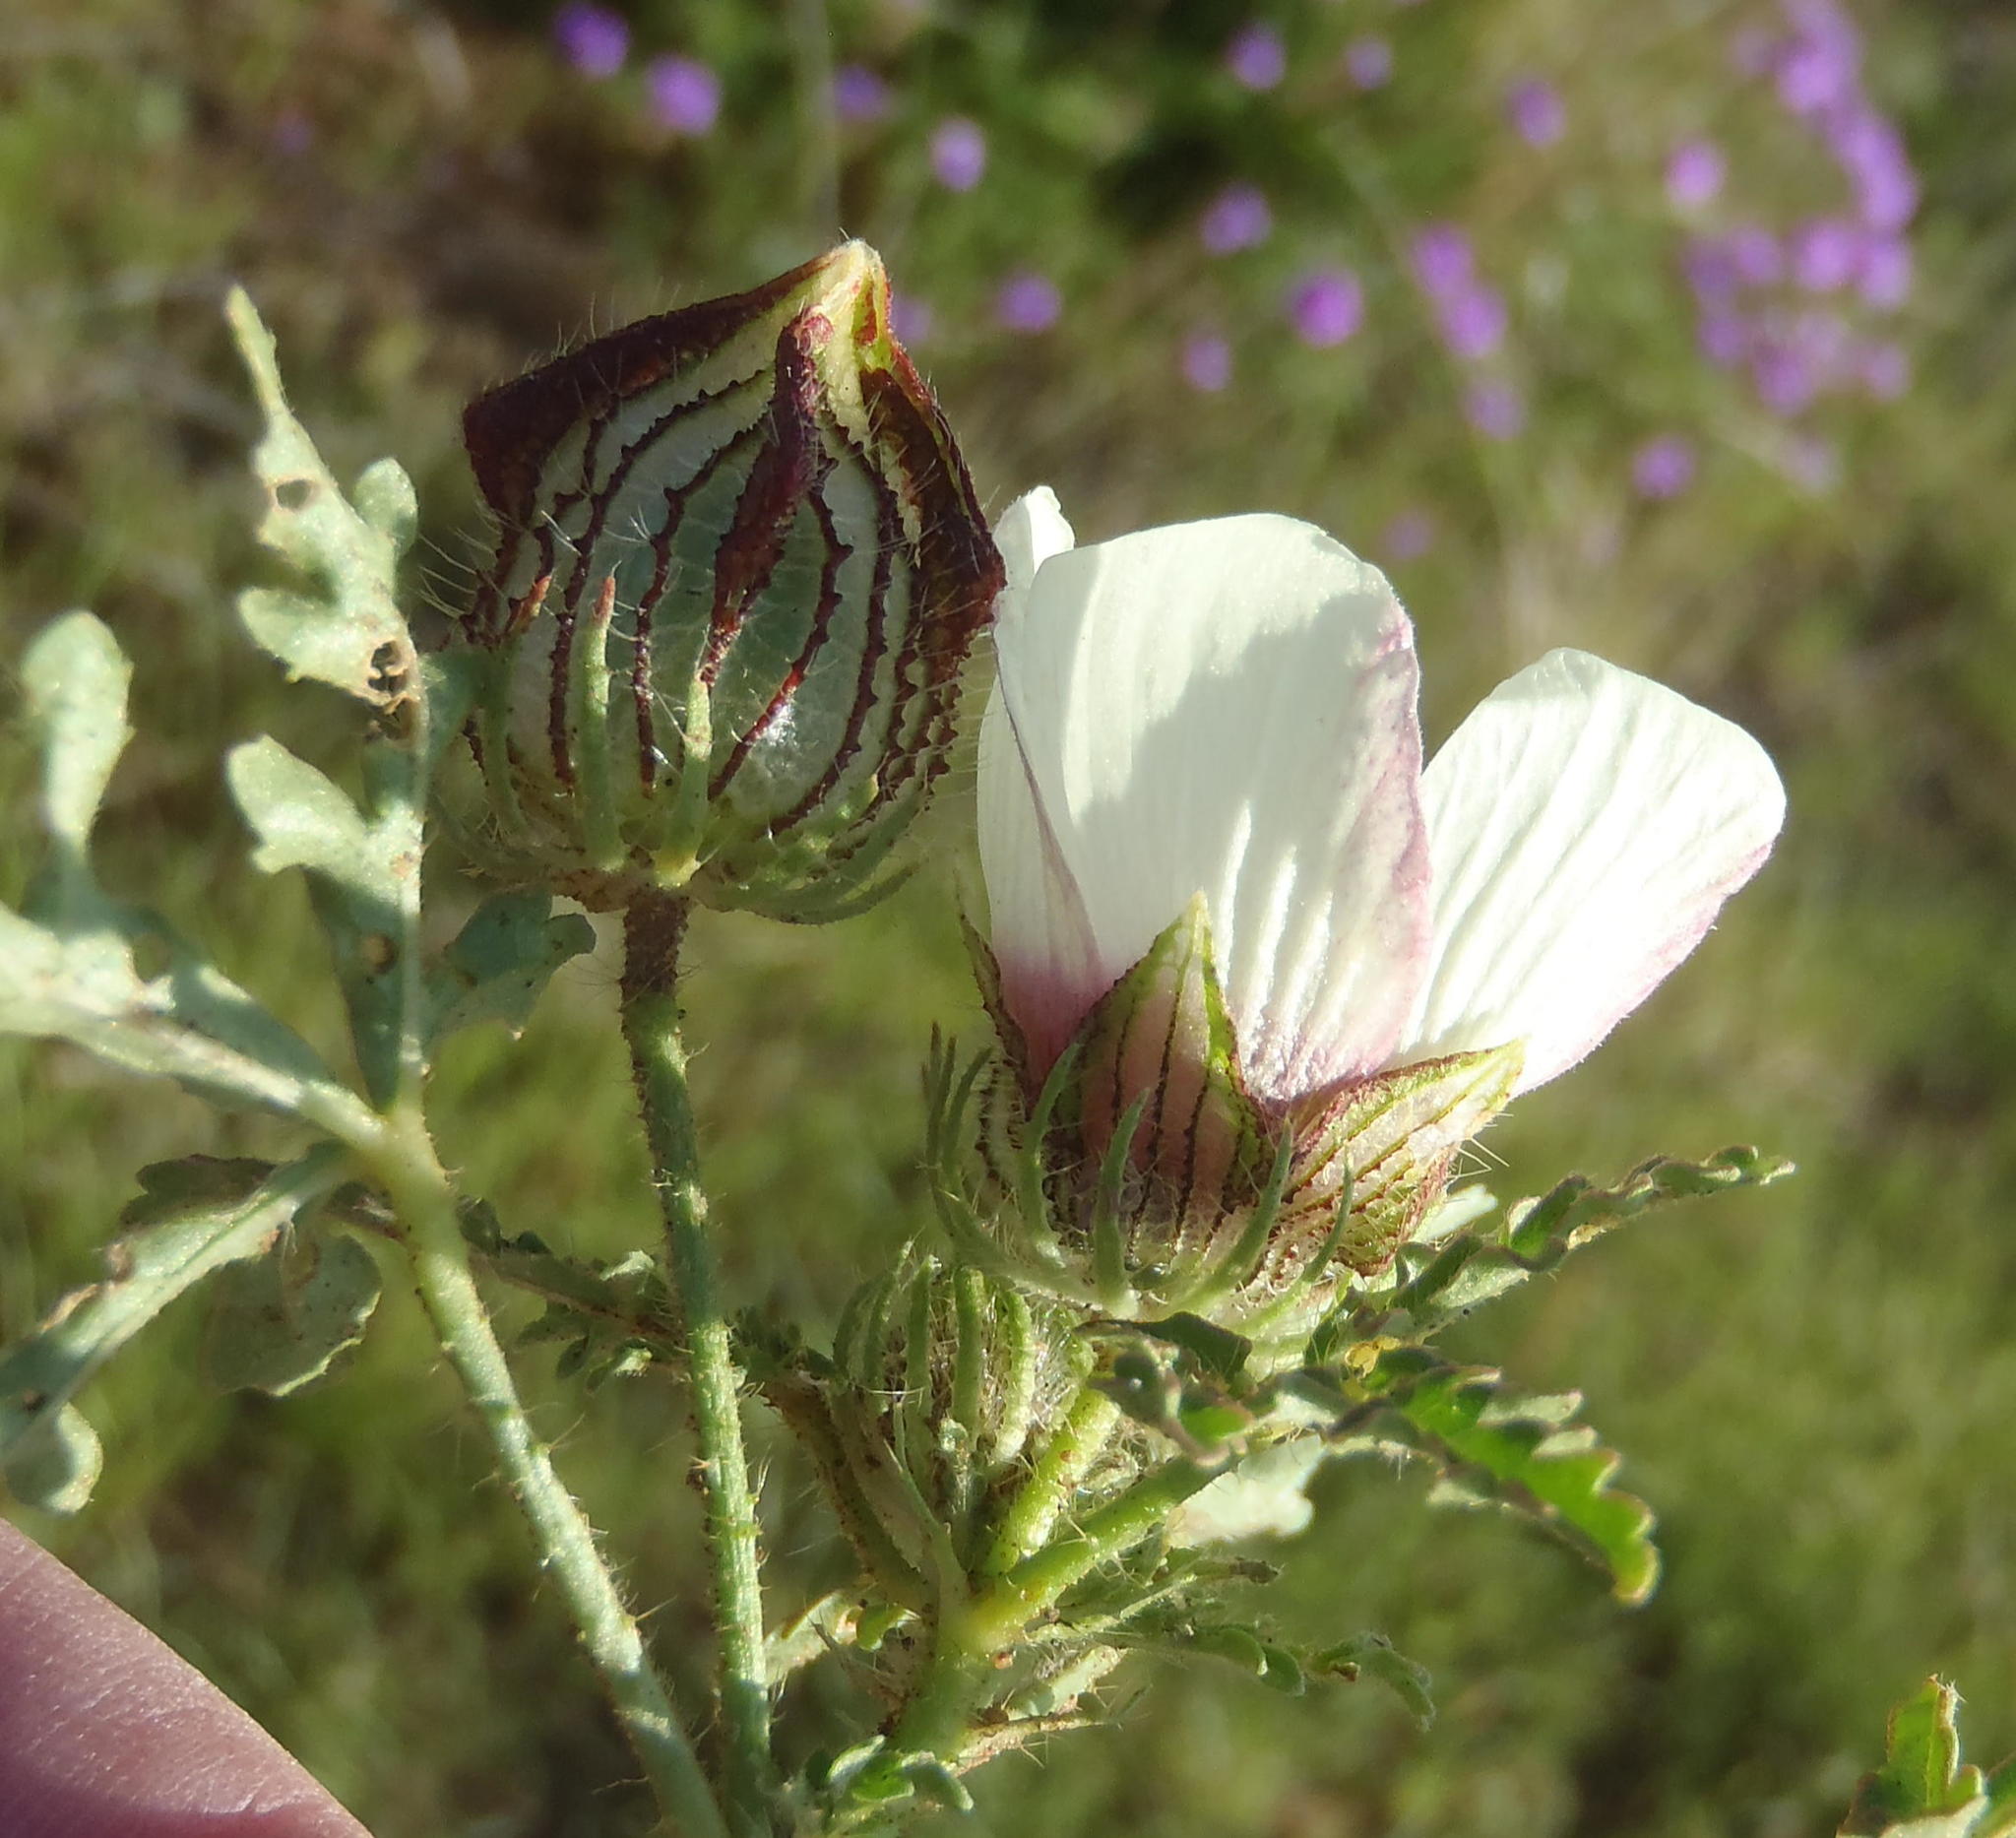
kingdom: Plantae
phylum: Tracheophyta
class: Magnoliopsida
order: Malvales
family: Malvaceae
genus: Hibiscus
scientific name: Hibiscus trionum
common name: Bladder ketmia
